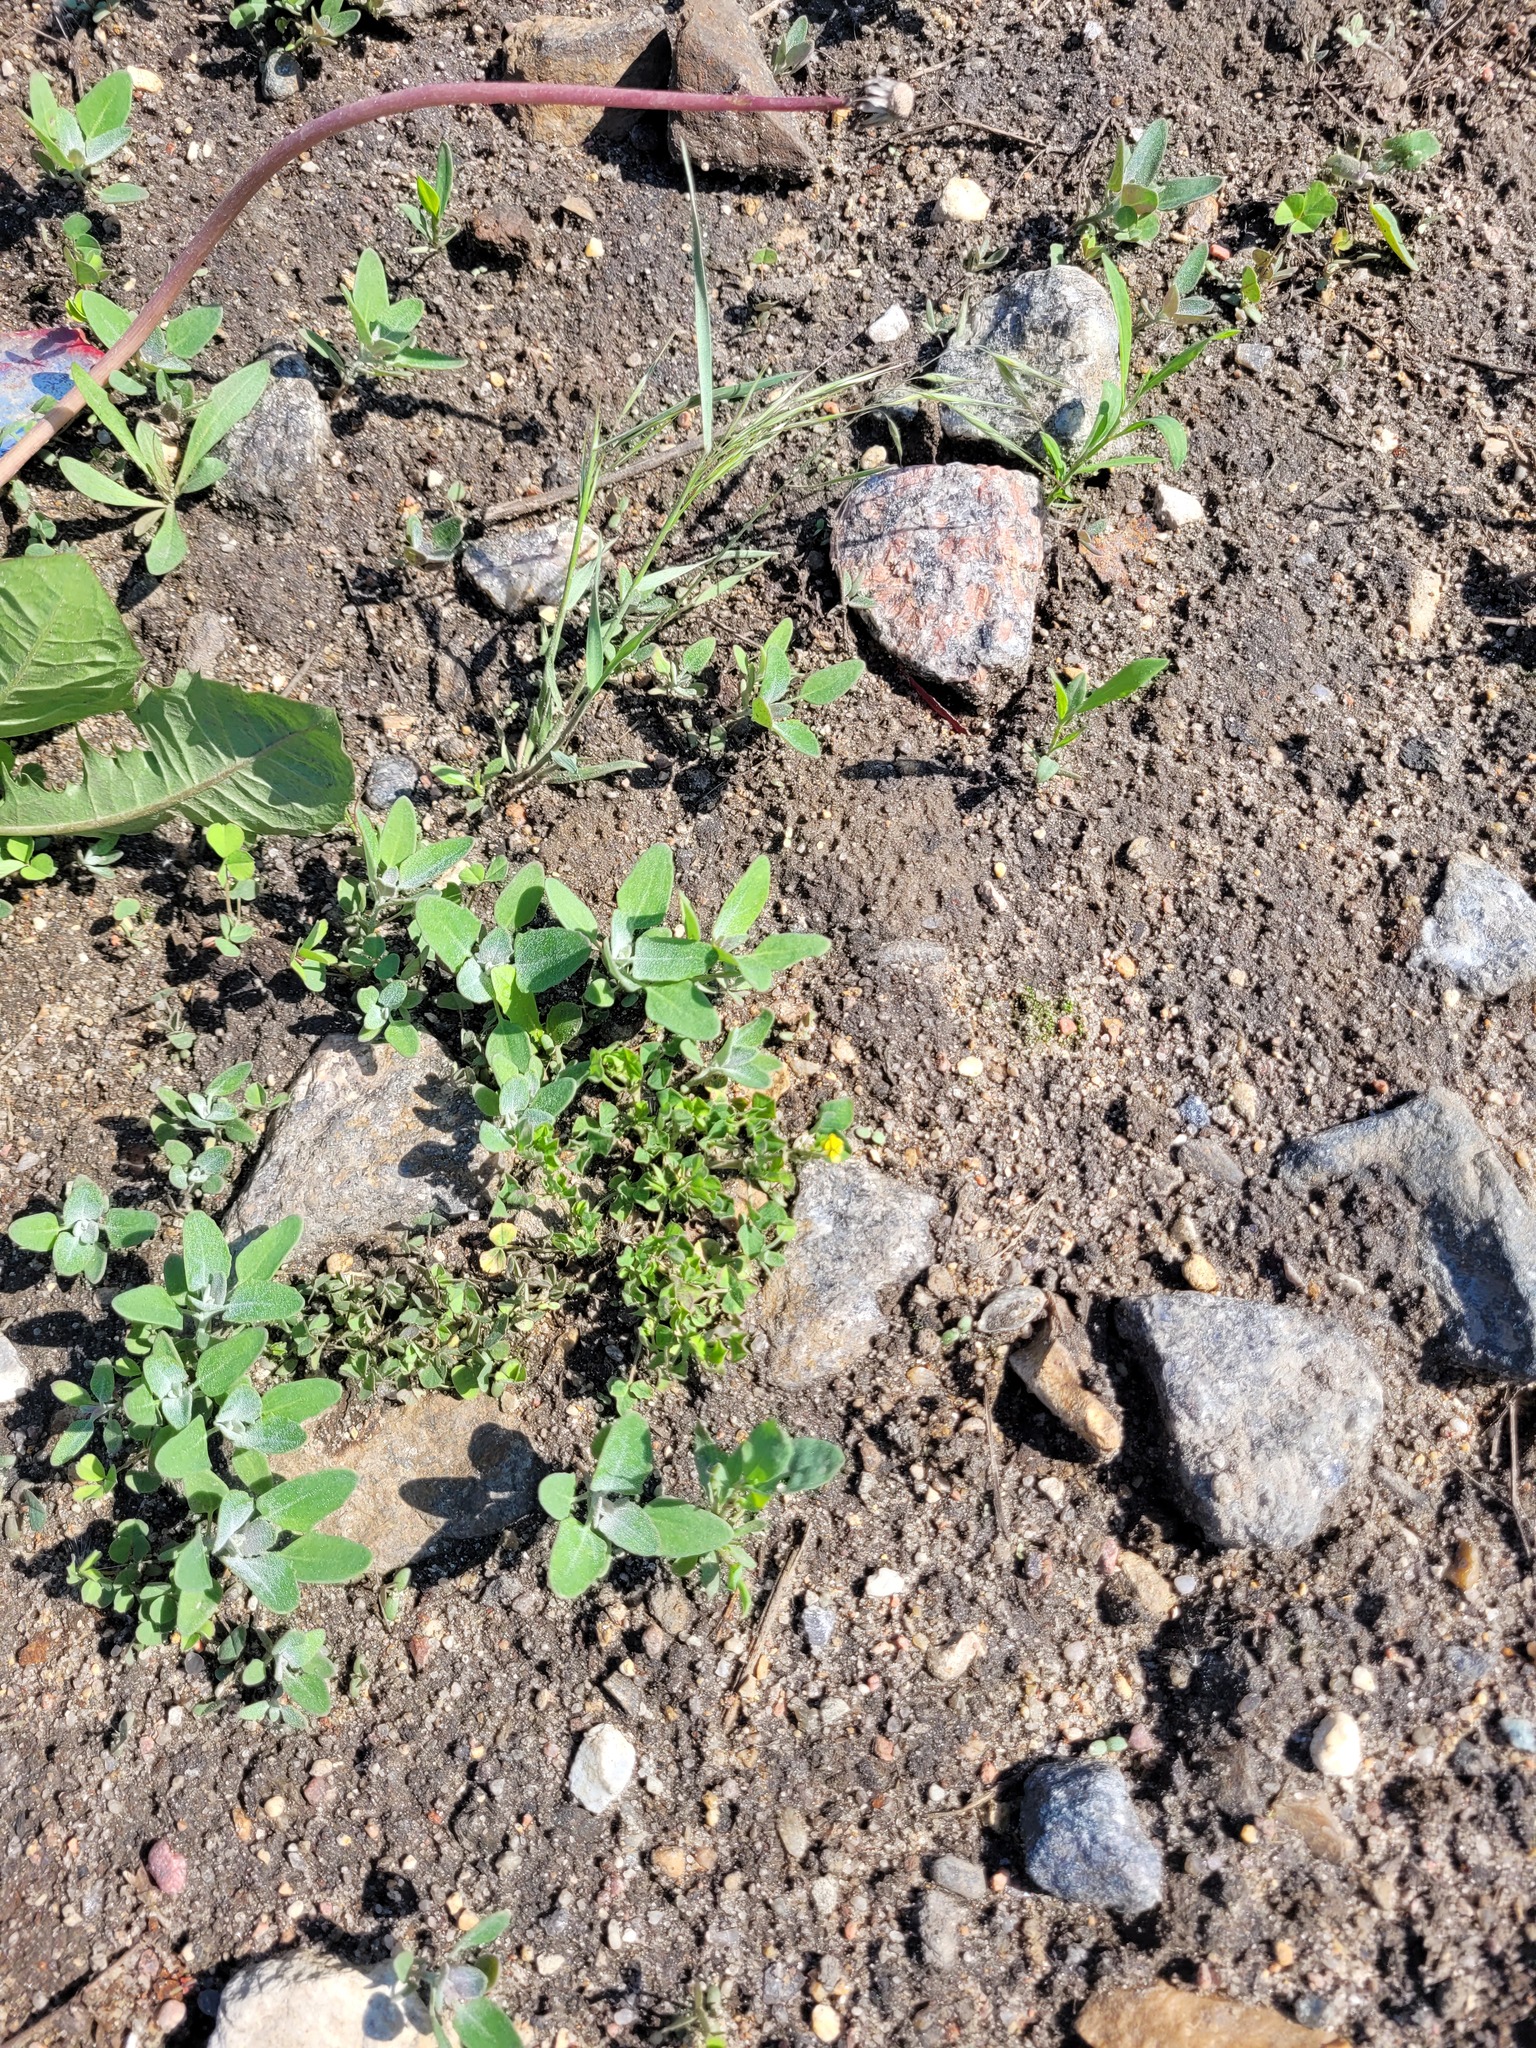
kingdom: Plantae
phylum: Tracheophyta
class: Magnoliopsida
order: Fabales
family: Fabaceae
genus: Medicago
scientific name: Medicago lupulina
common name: Black medick
